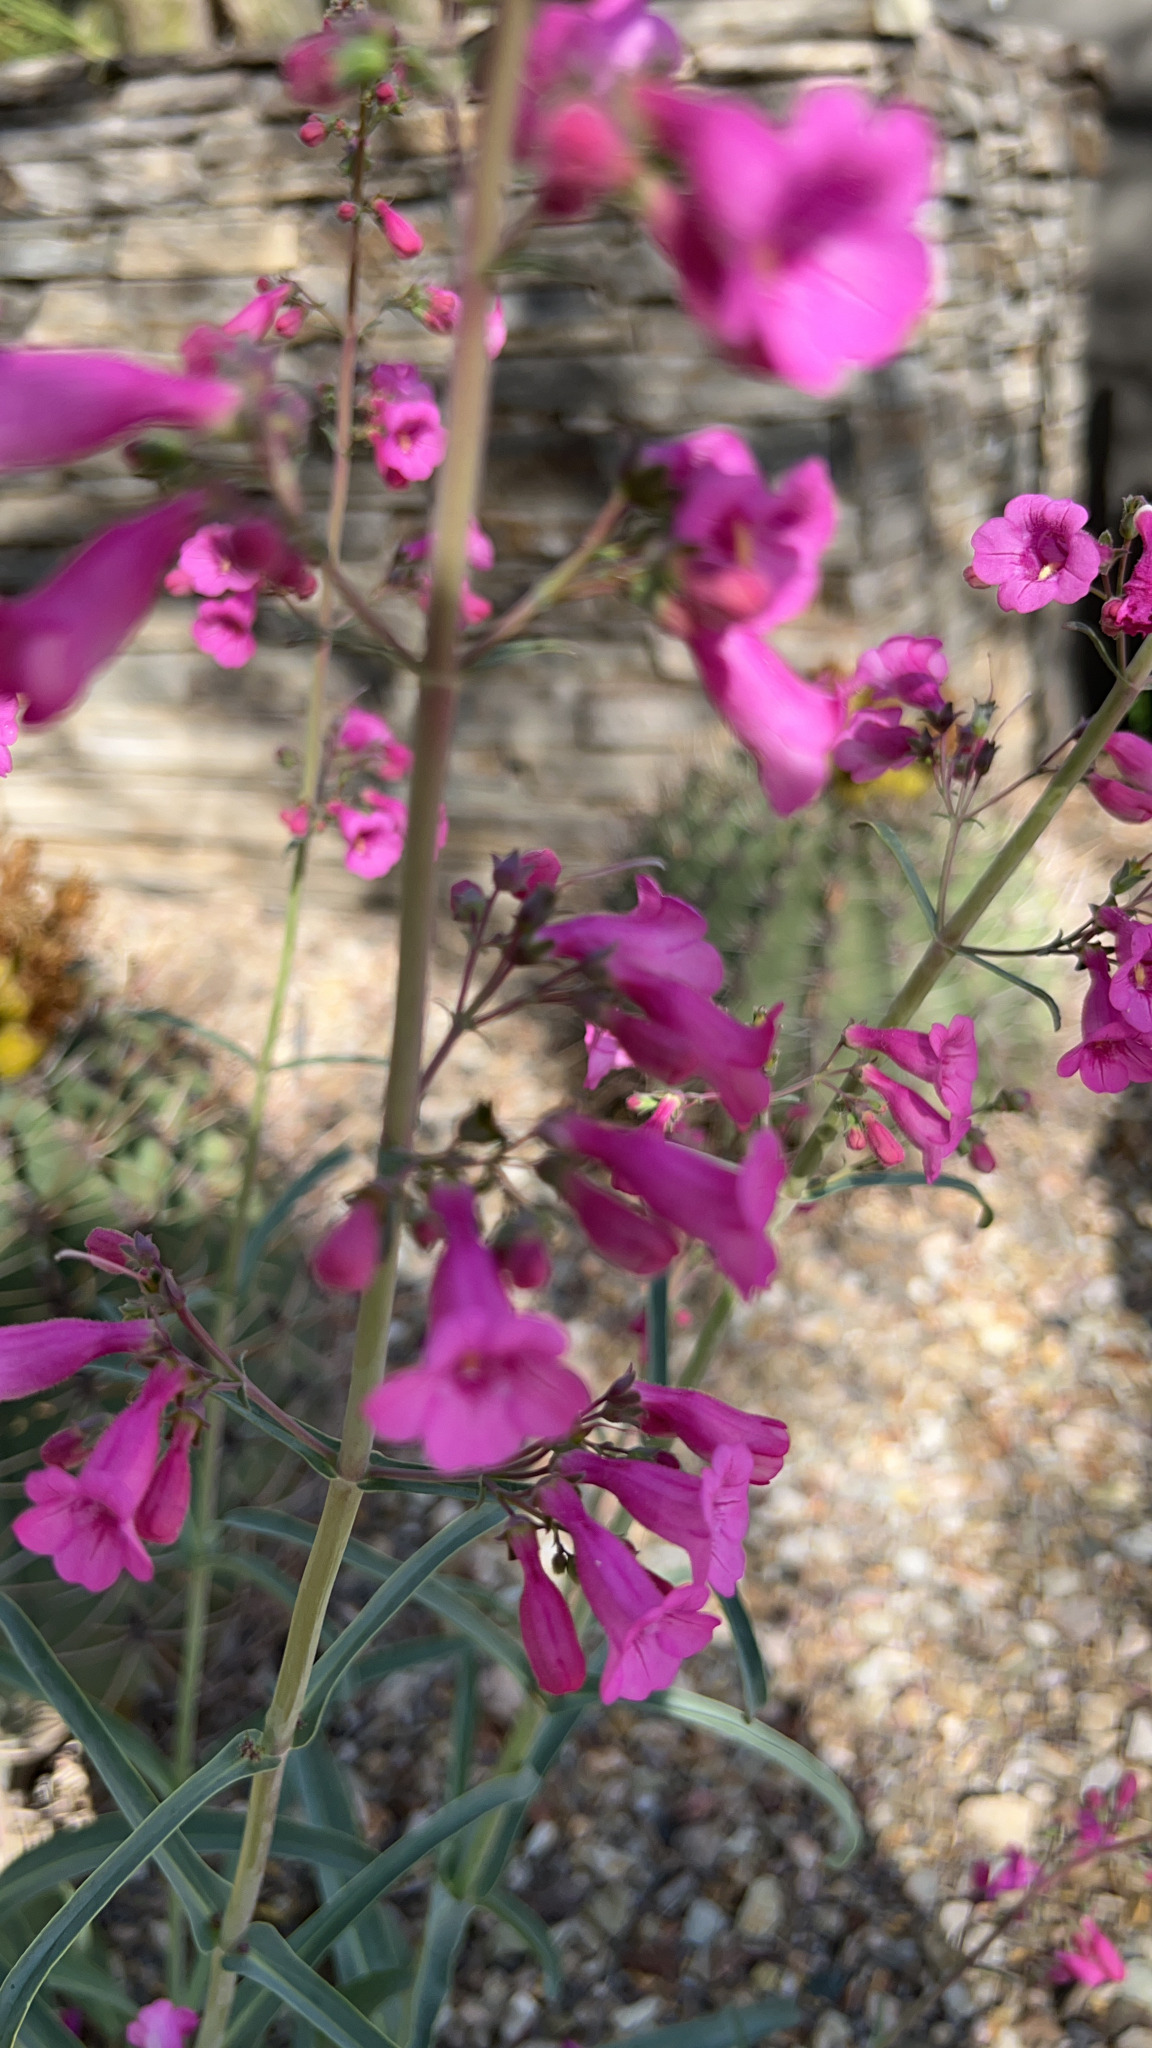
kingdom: Plantae
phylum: Tracheophyta
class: Magnoliopsida
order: Lamiales
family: Plantaginaceae
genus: Penstemon
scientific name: Penstemon parryi
